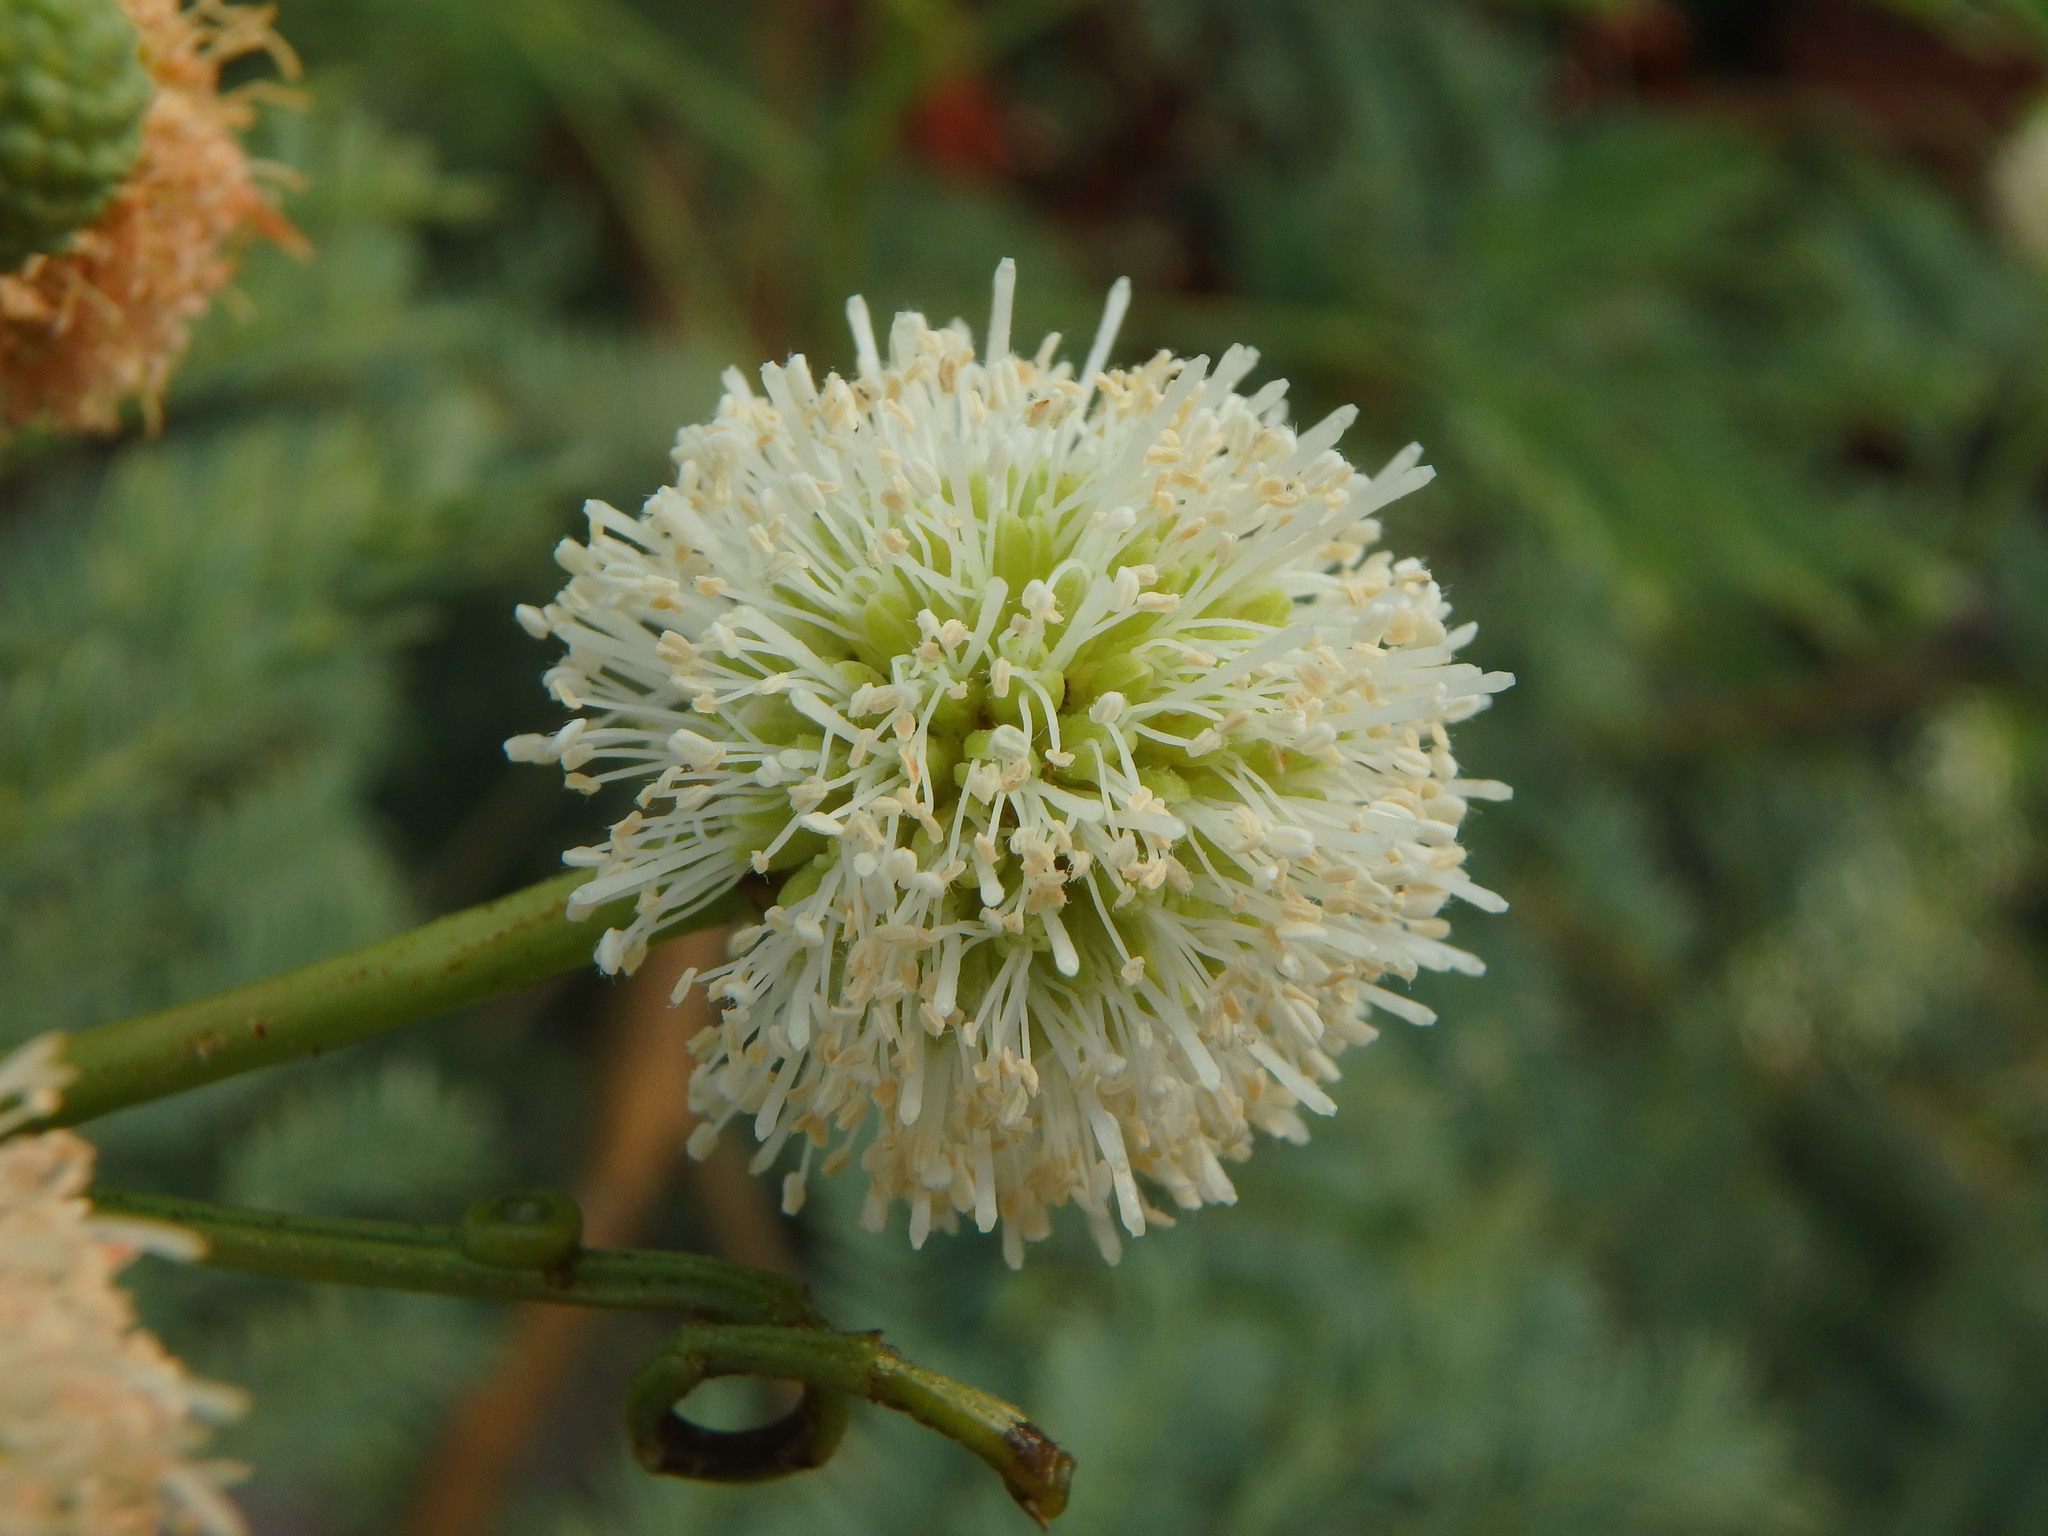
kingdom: Plantae
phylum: Tracheophyta
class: Magnoliopsida
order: Fabales
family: Fabaceae
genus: Leucaena
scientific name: Leucaena leucocephala
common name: White leadtree
